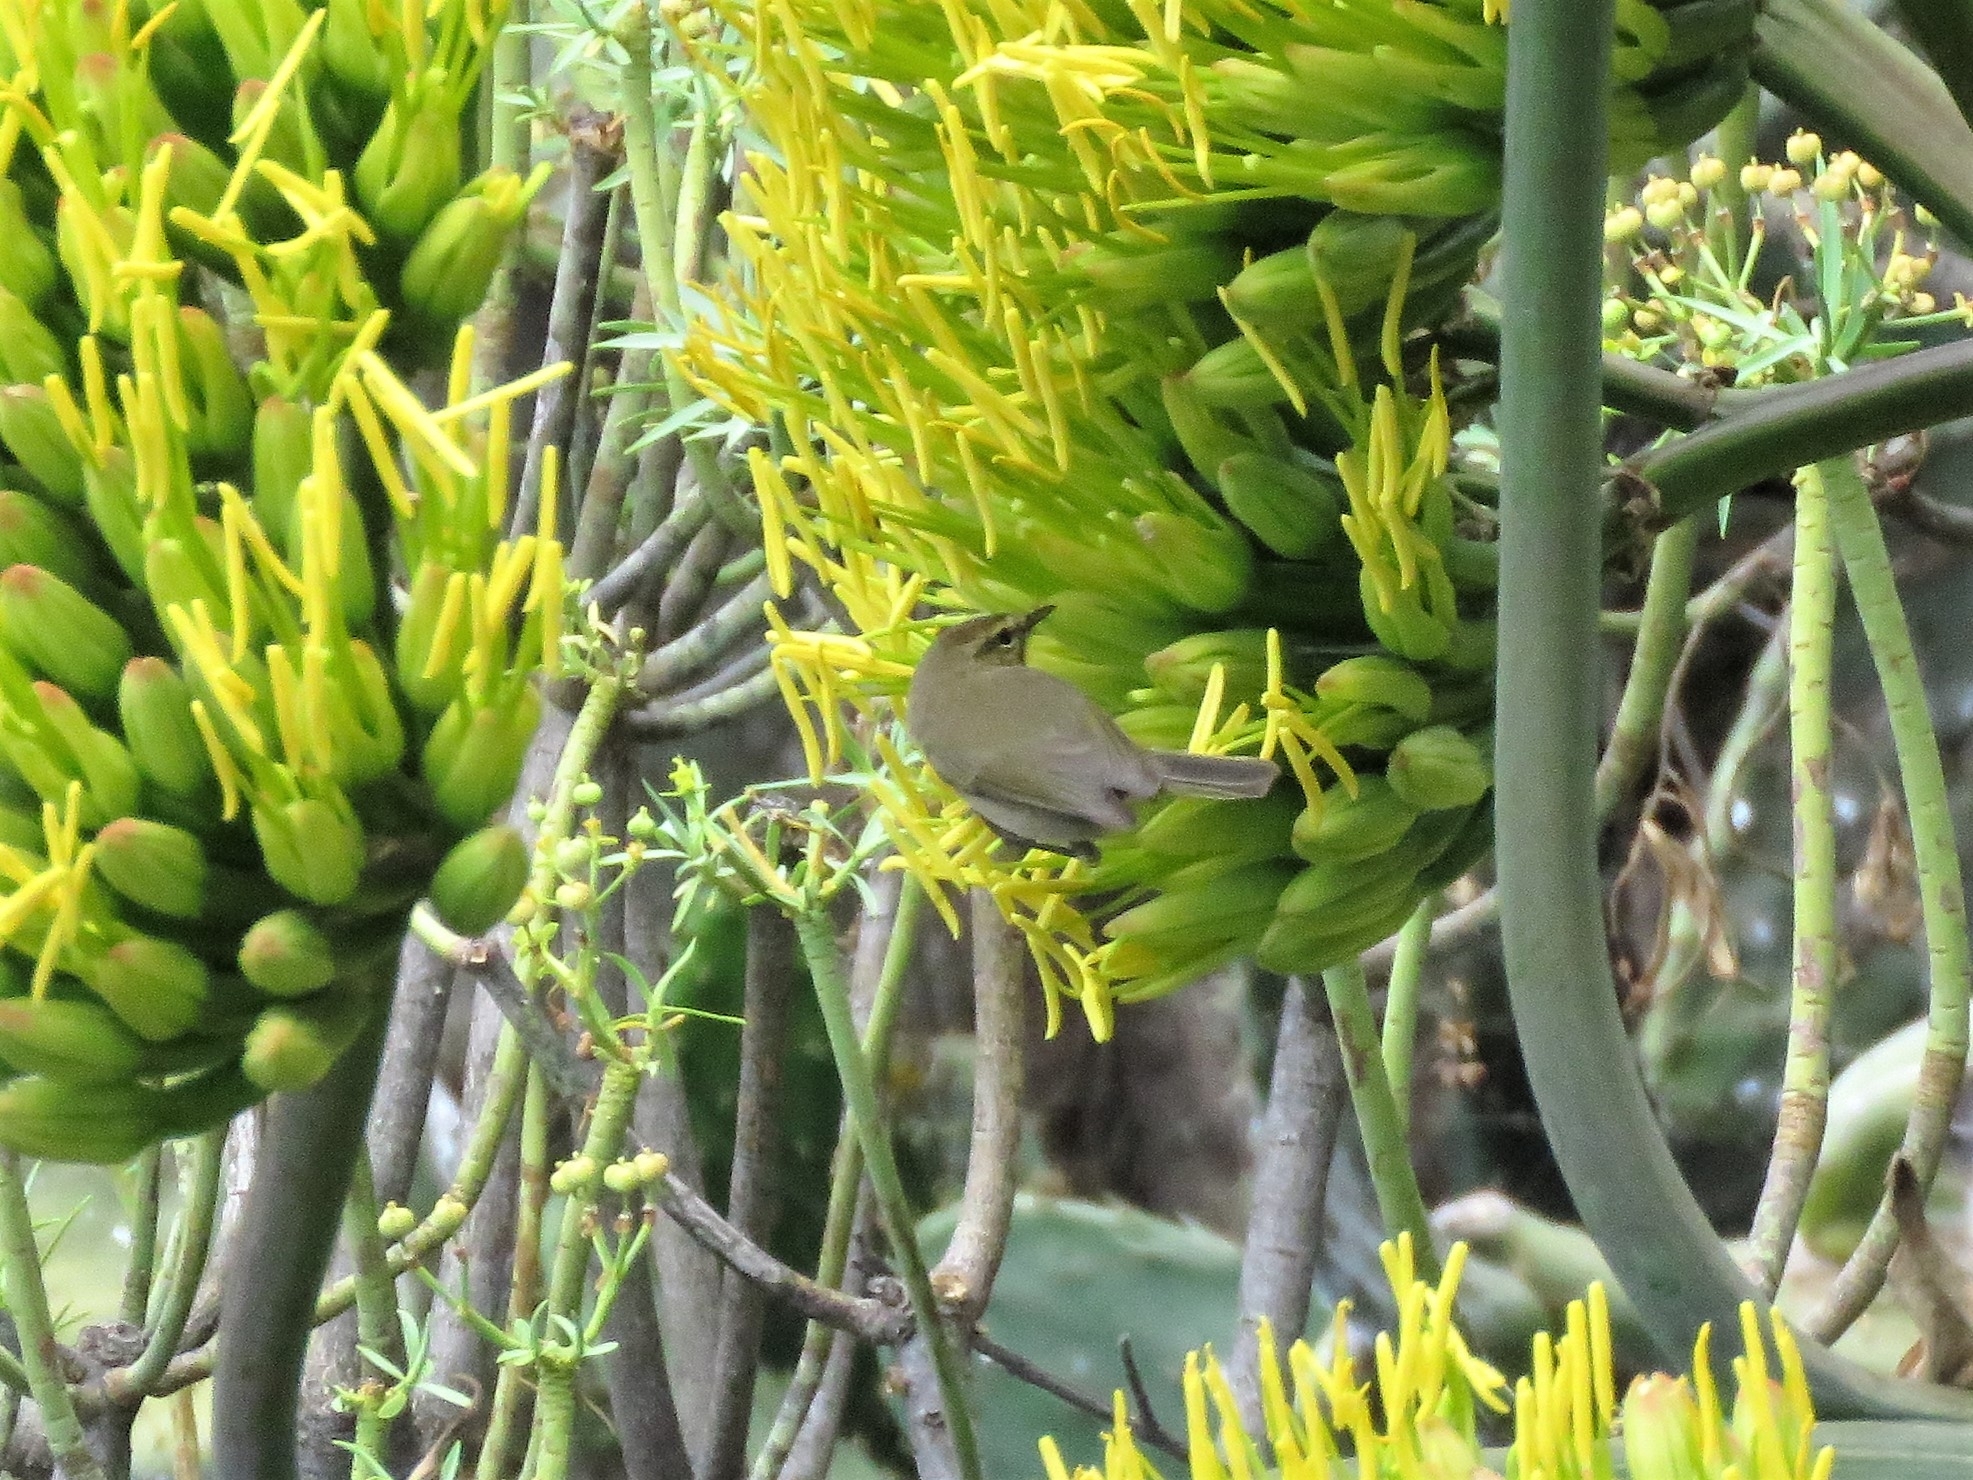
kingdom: Animalia
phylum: Chordata
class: Aves
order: Passeriformes
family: Phylloscopidae
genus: Phylloscopus
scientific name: Phylloscopus canariensis
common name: Canary islands chiffchaff
